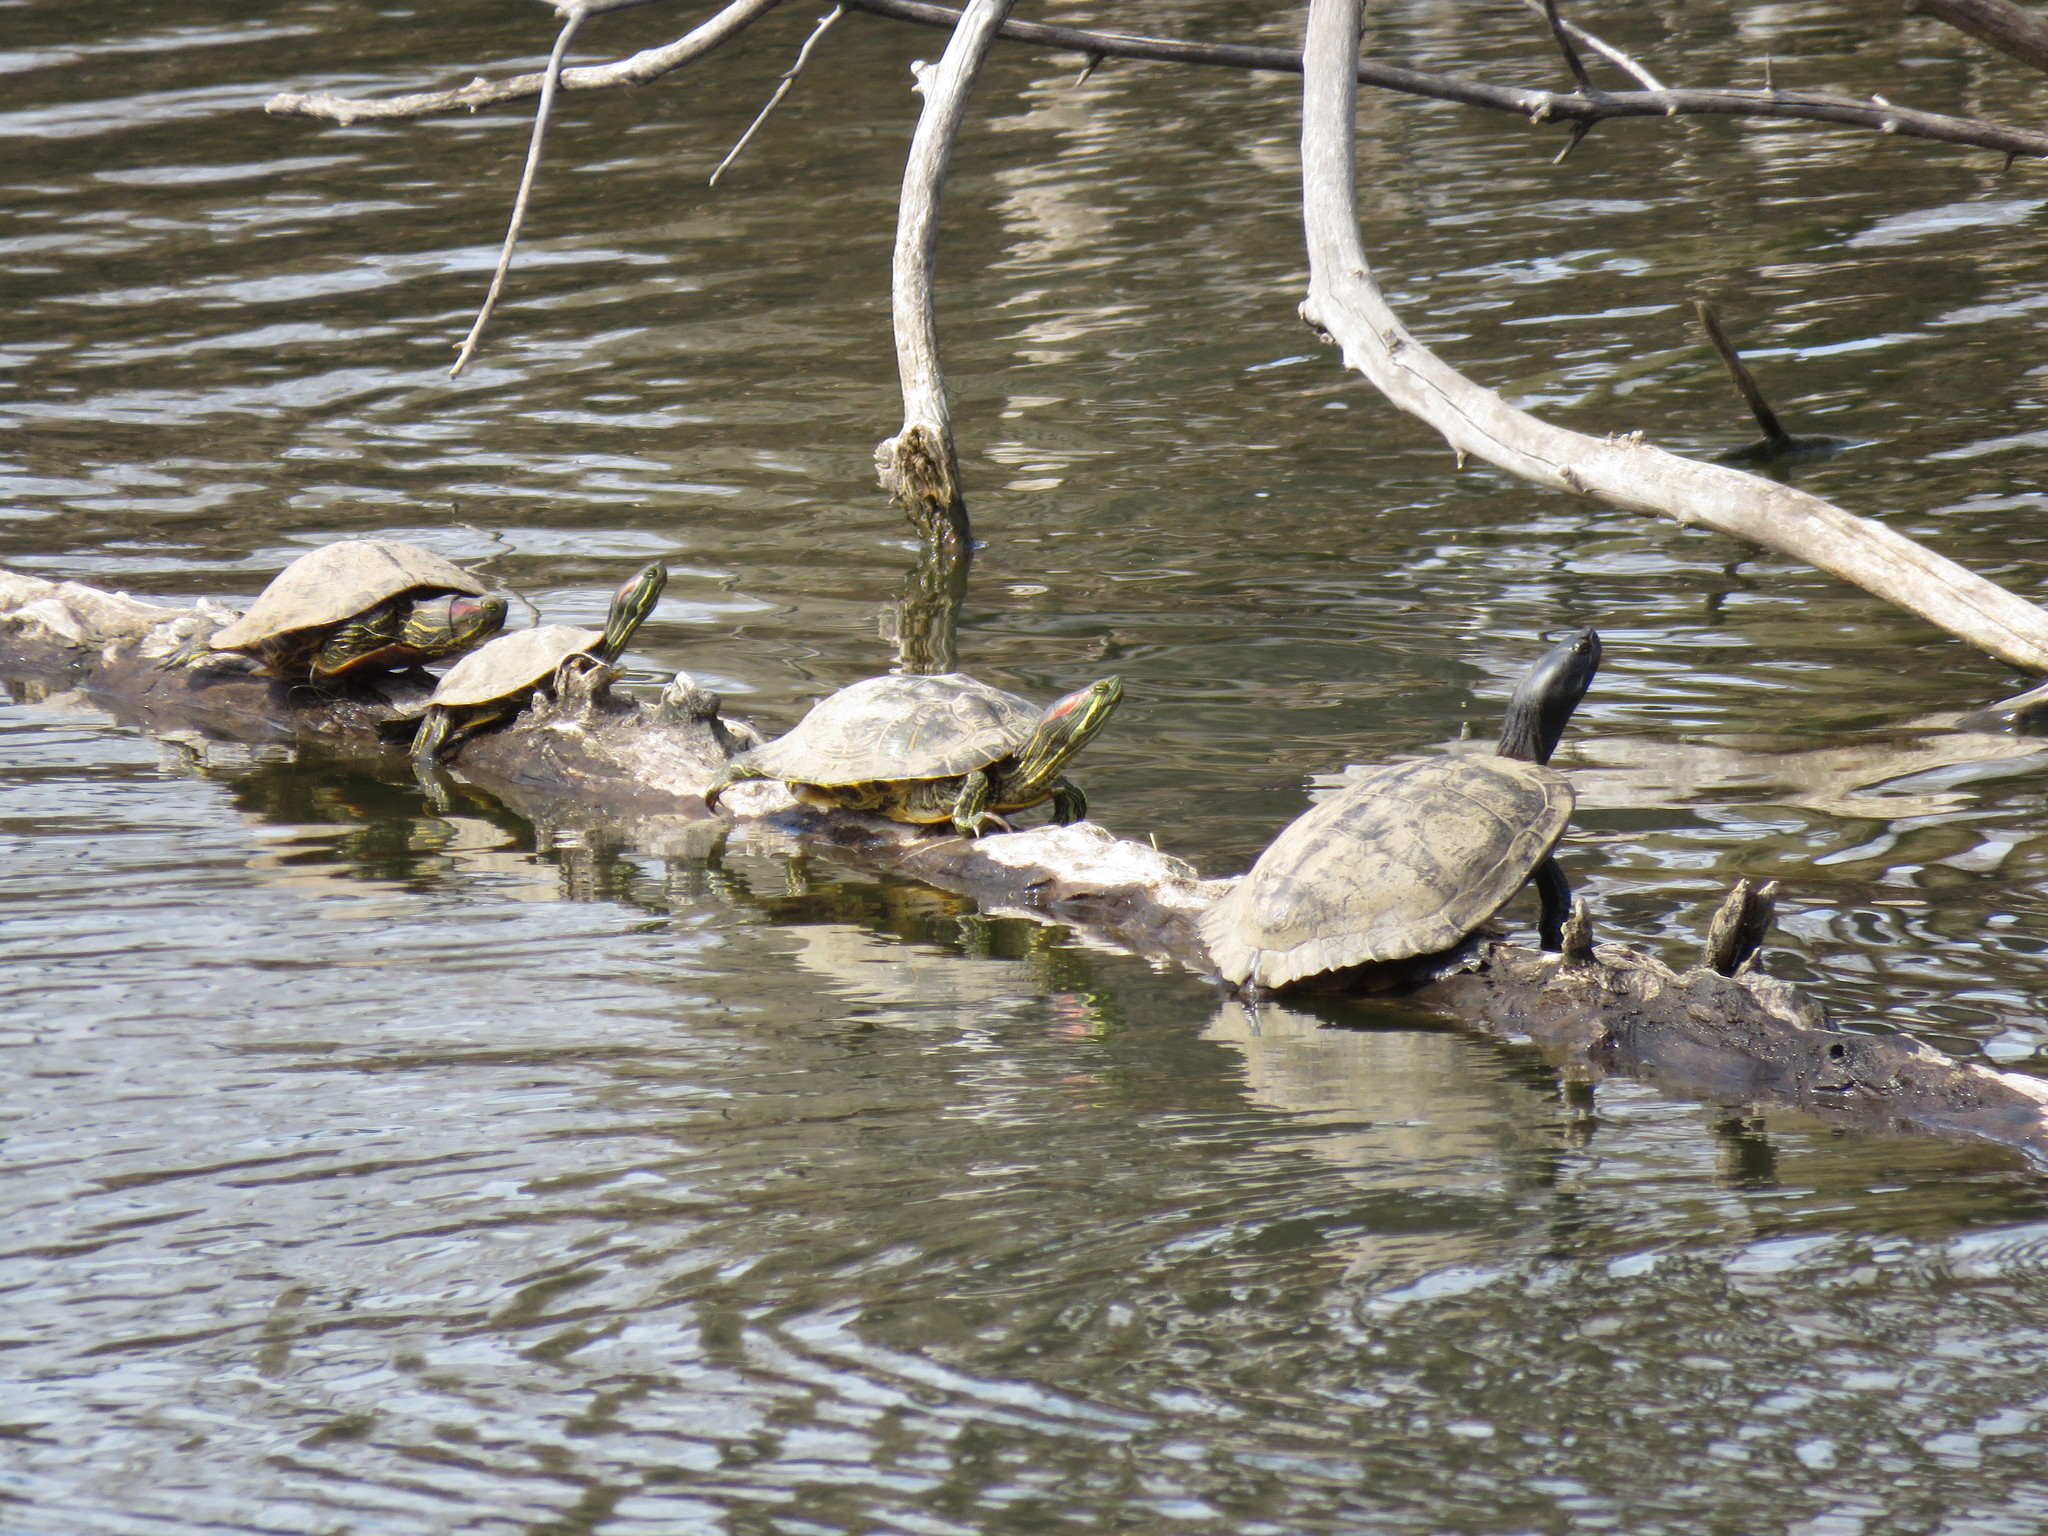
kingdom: Animalia
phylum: Chordata
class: Testudines
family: Emydidae
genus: Trachemys
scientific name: Trachemys scripta
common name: Slider
